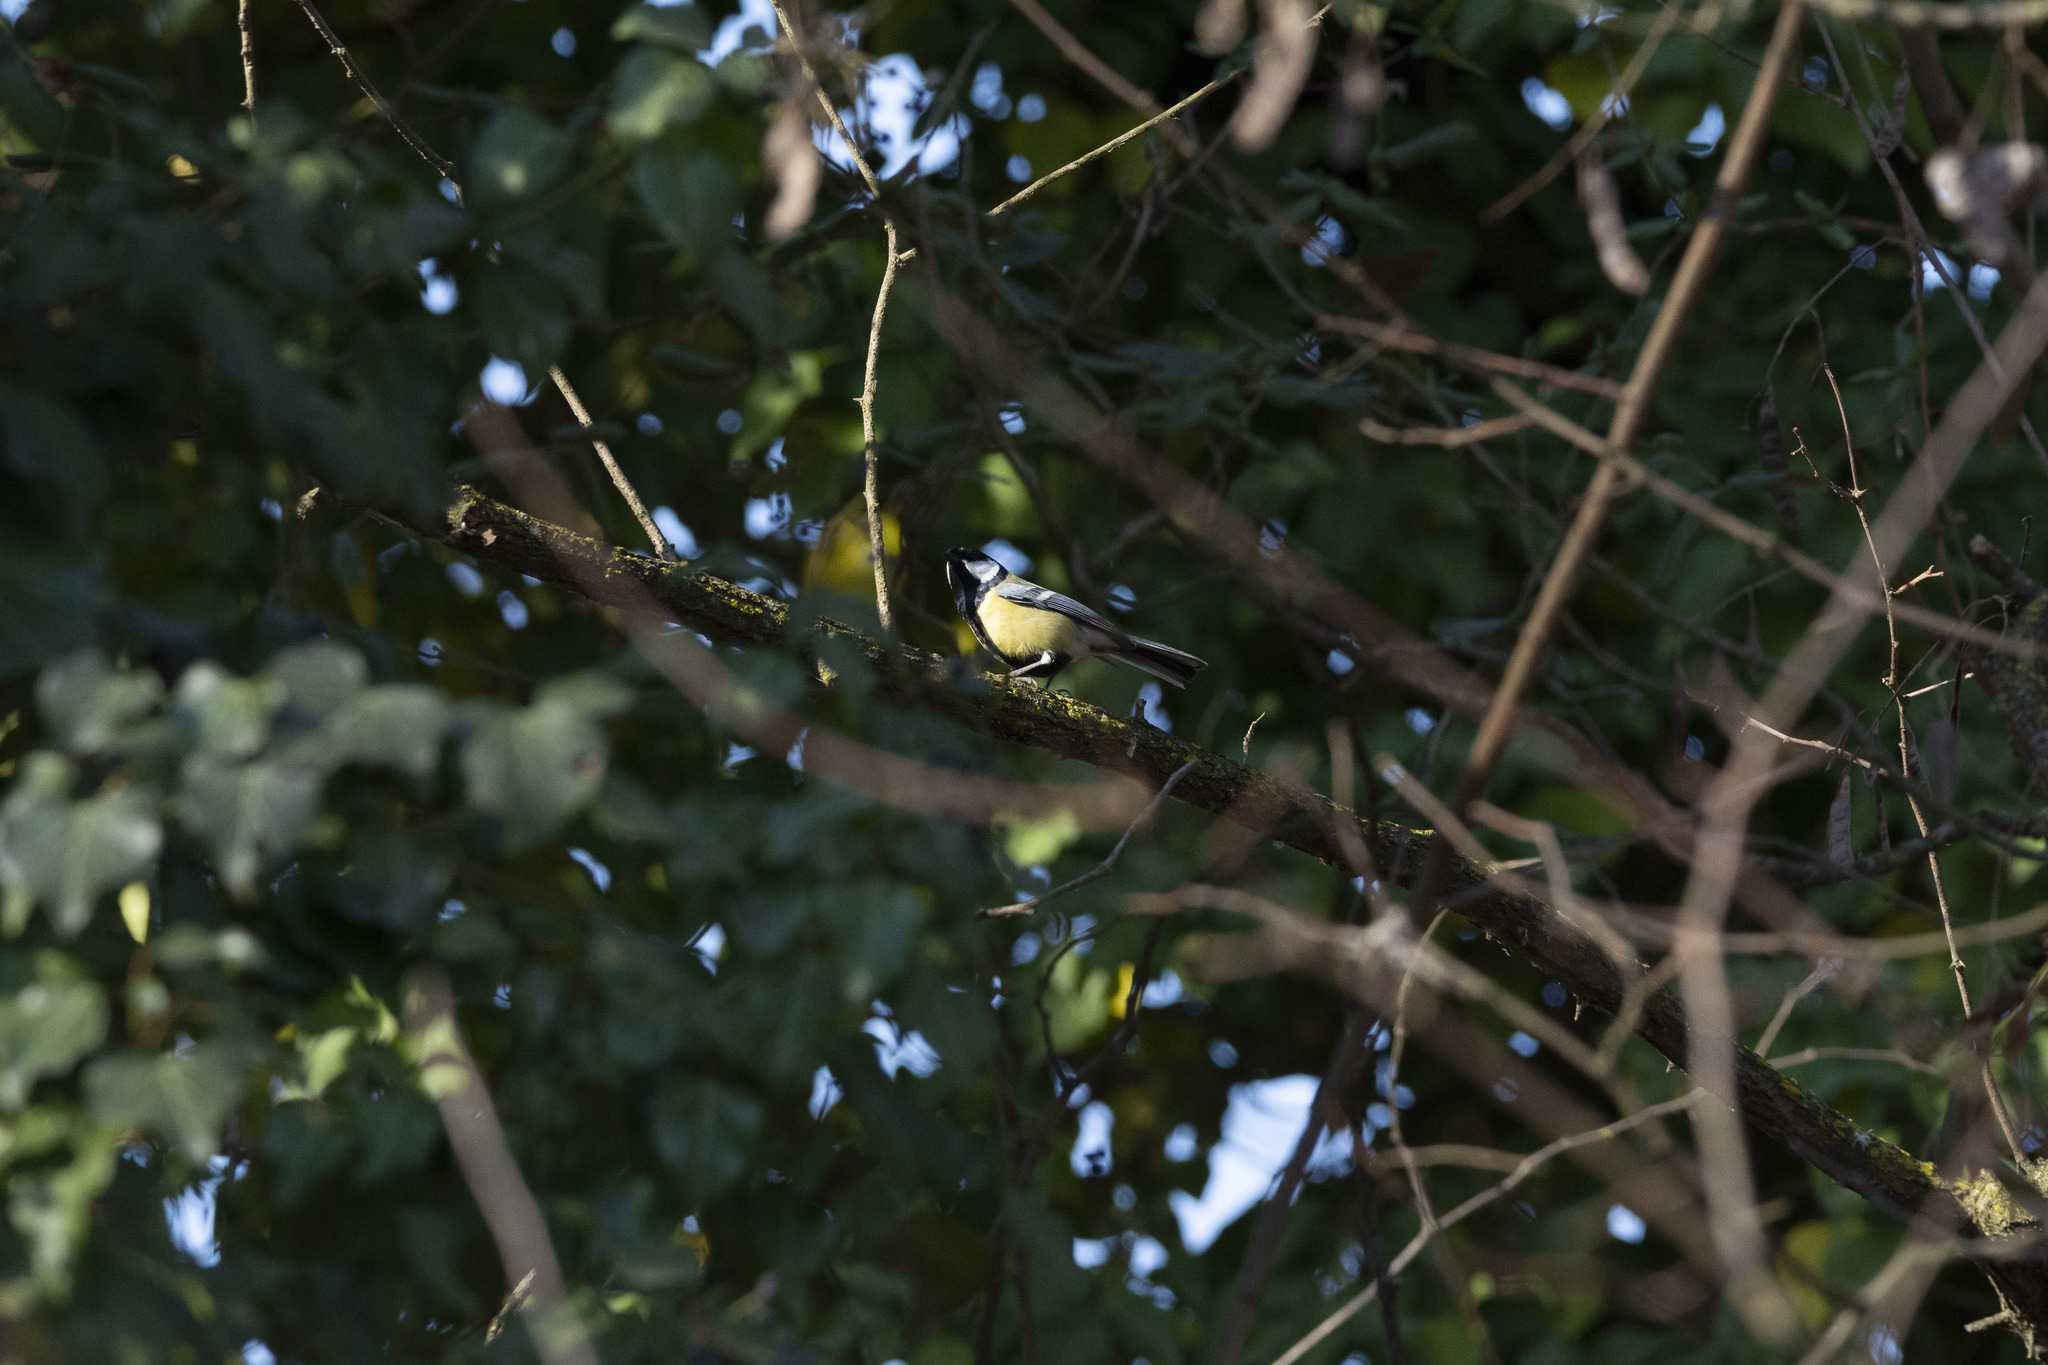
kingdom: Animalia
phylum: Chordata
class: Aves
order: Passeriformes
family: Paridae
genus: Parus
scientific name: Parus major
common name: Great tit
